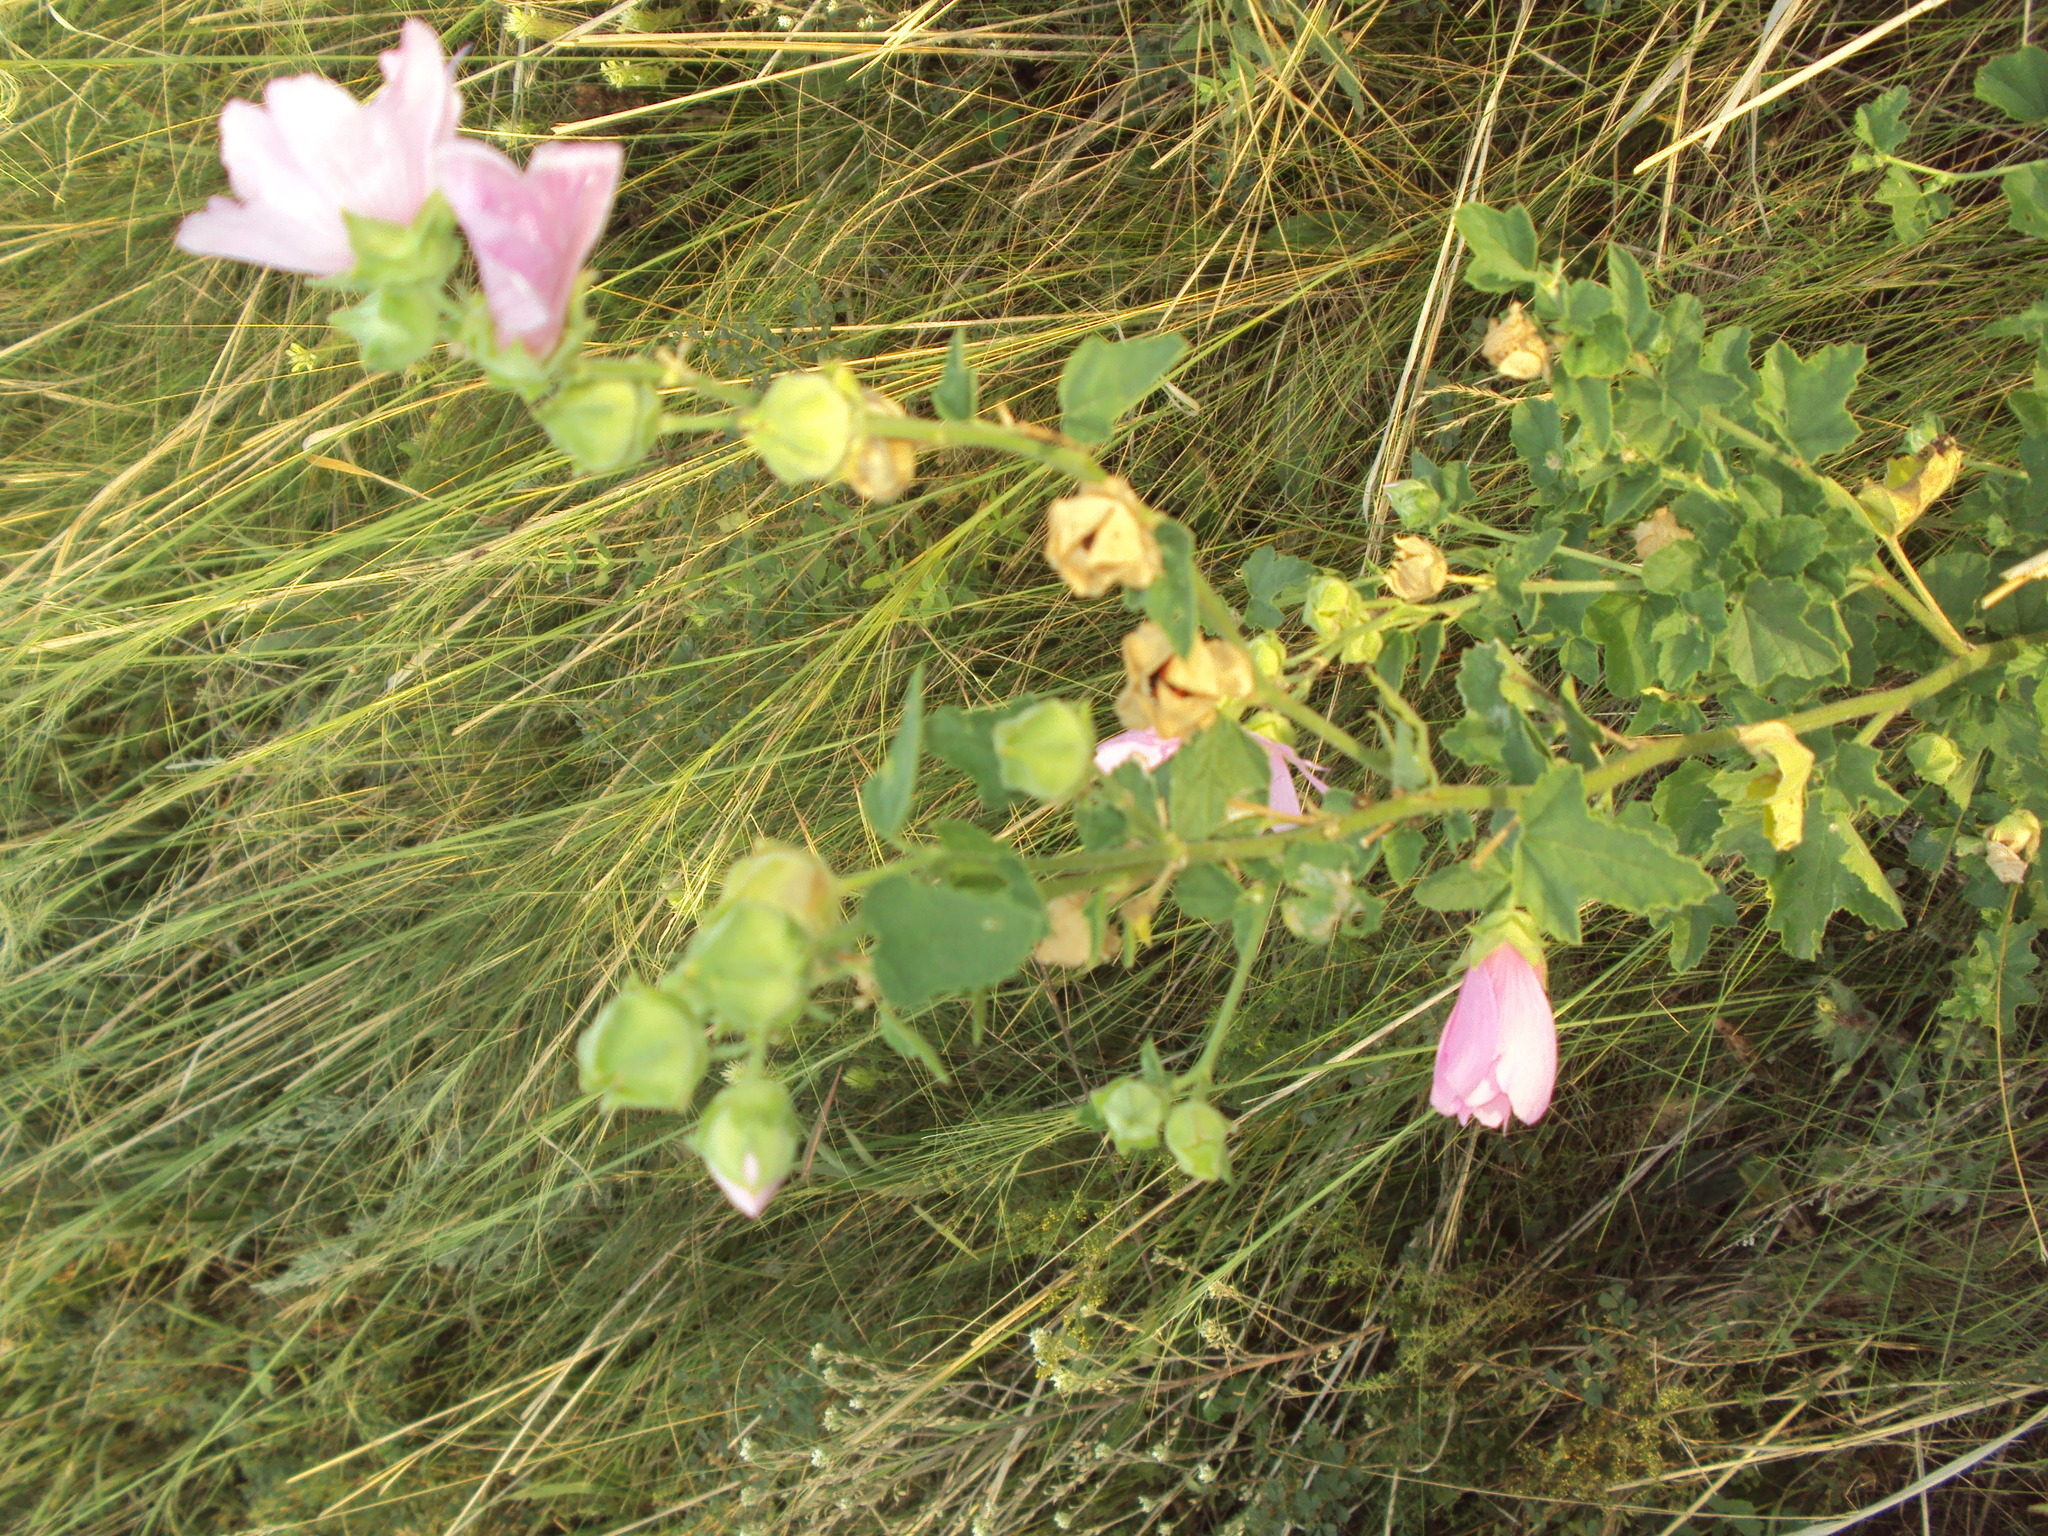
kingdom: Plantae
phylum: Tracheophyta
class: Magnoliopsida
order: Malvales
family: Malvaceae
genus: Malva
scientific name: Malva thuringiaca
